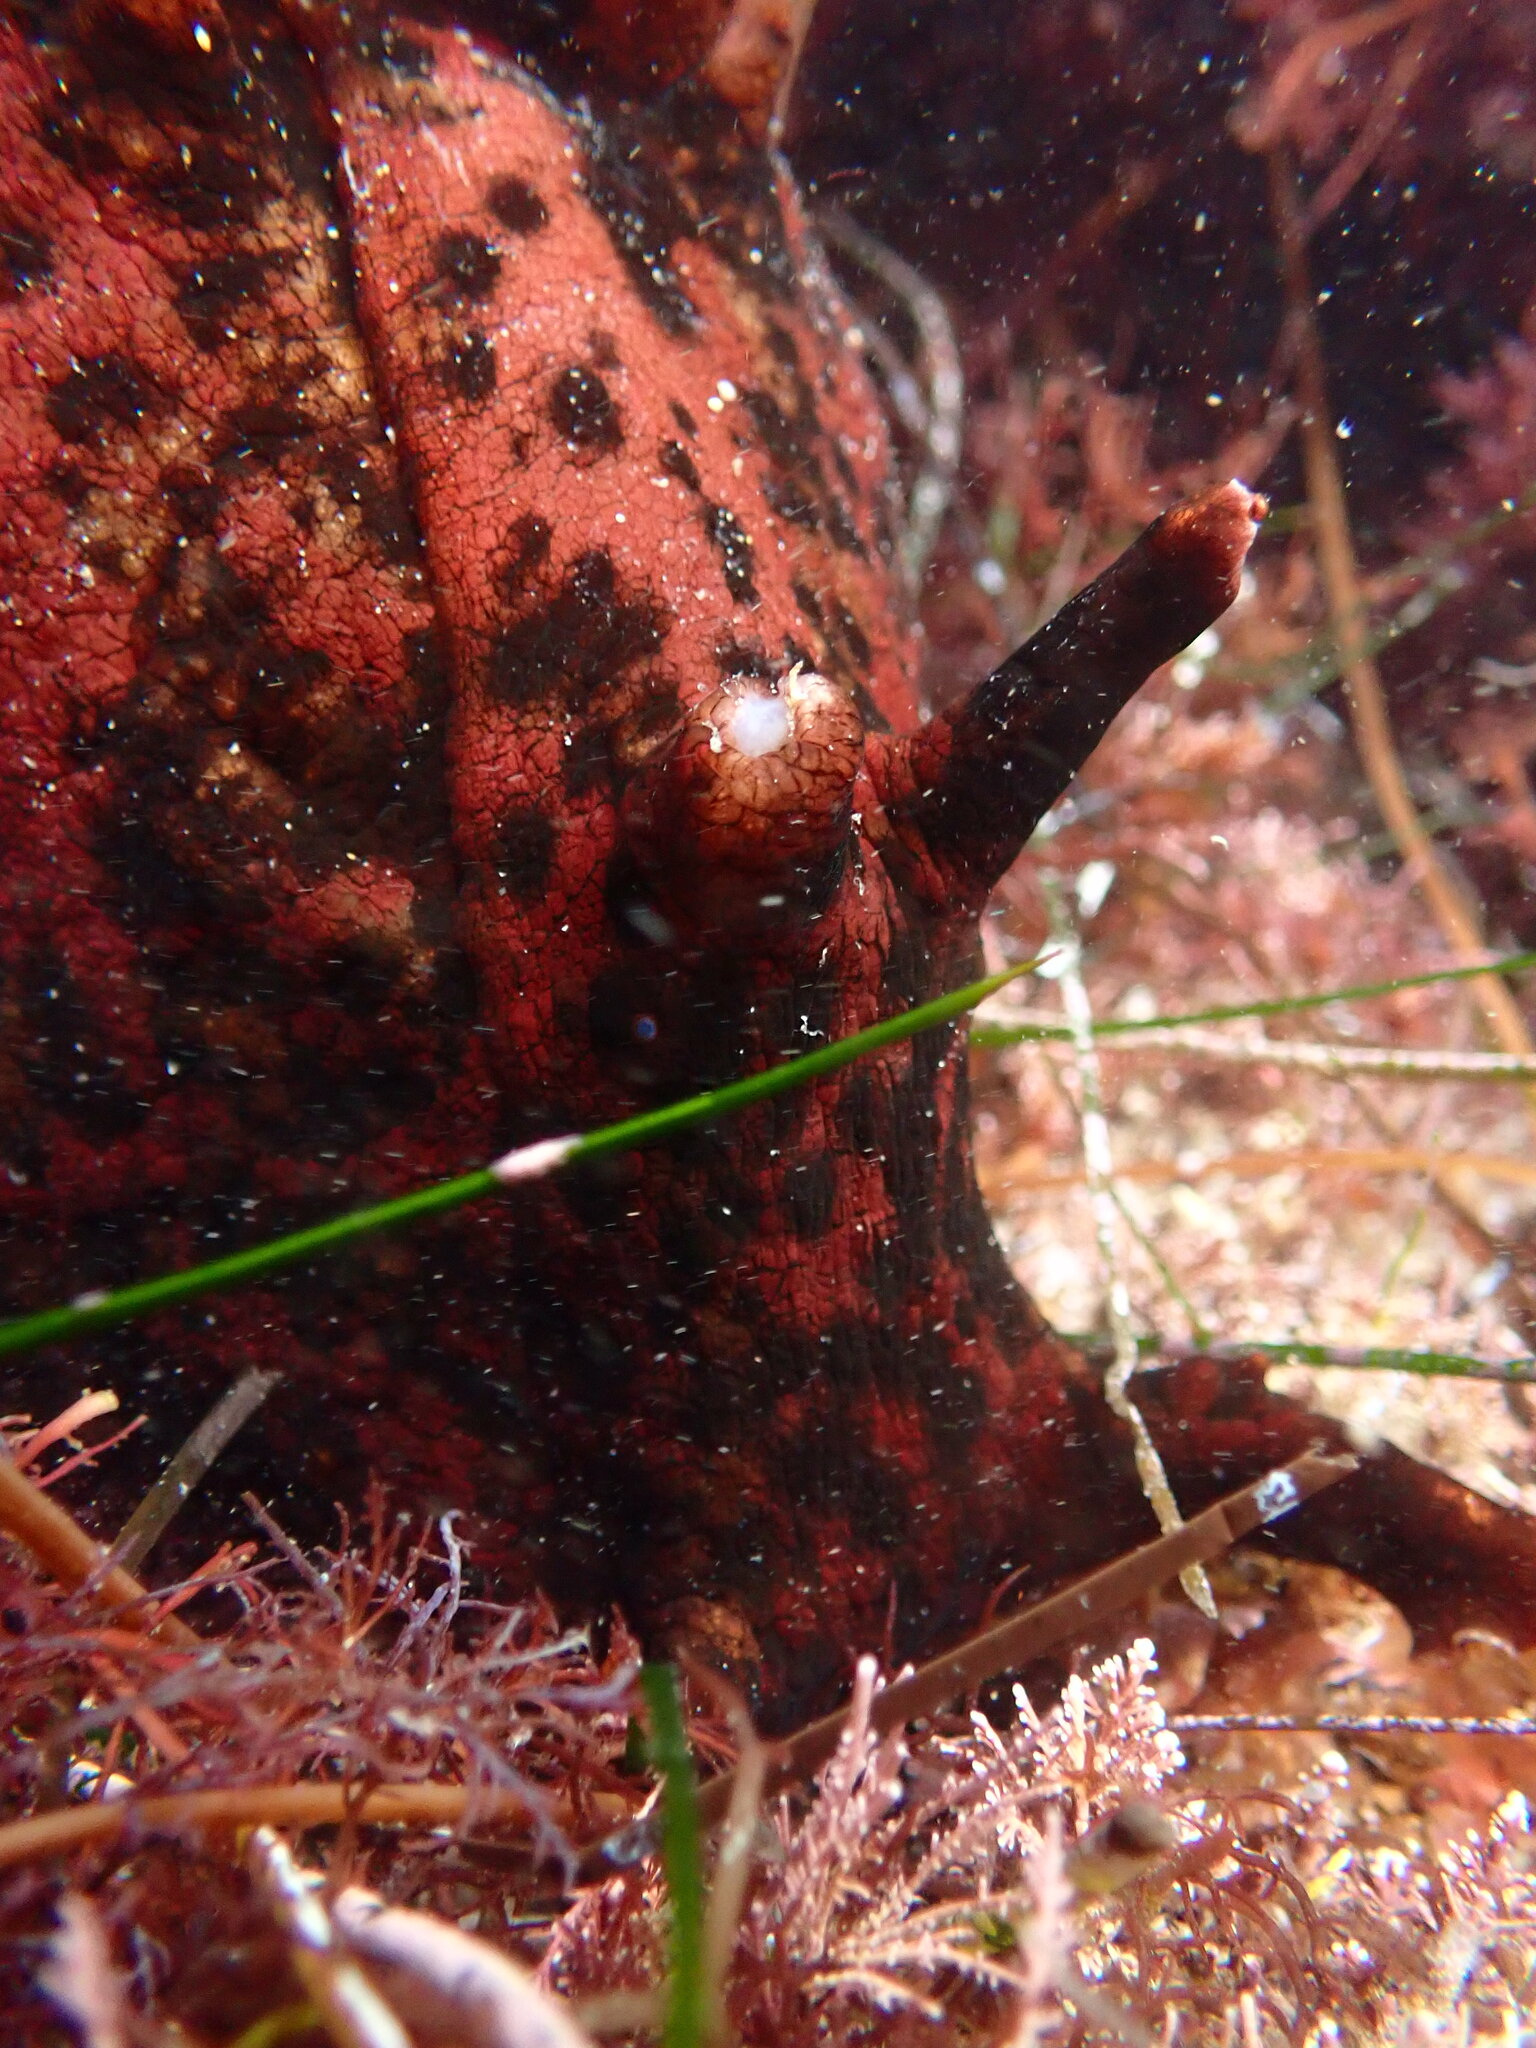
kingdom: Animalia
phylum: Mollusca
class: Gastropoda
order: Aplysiida
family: Aplysiidae
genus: Aplysia
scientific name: Aplysia californica
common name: California seahare
